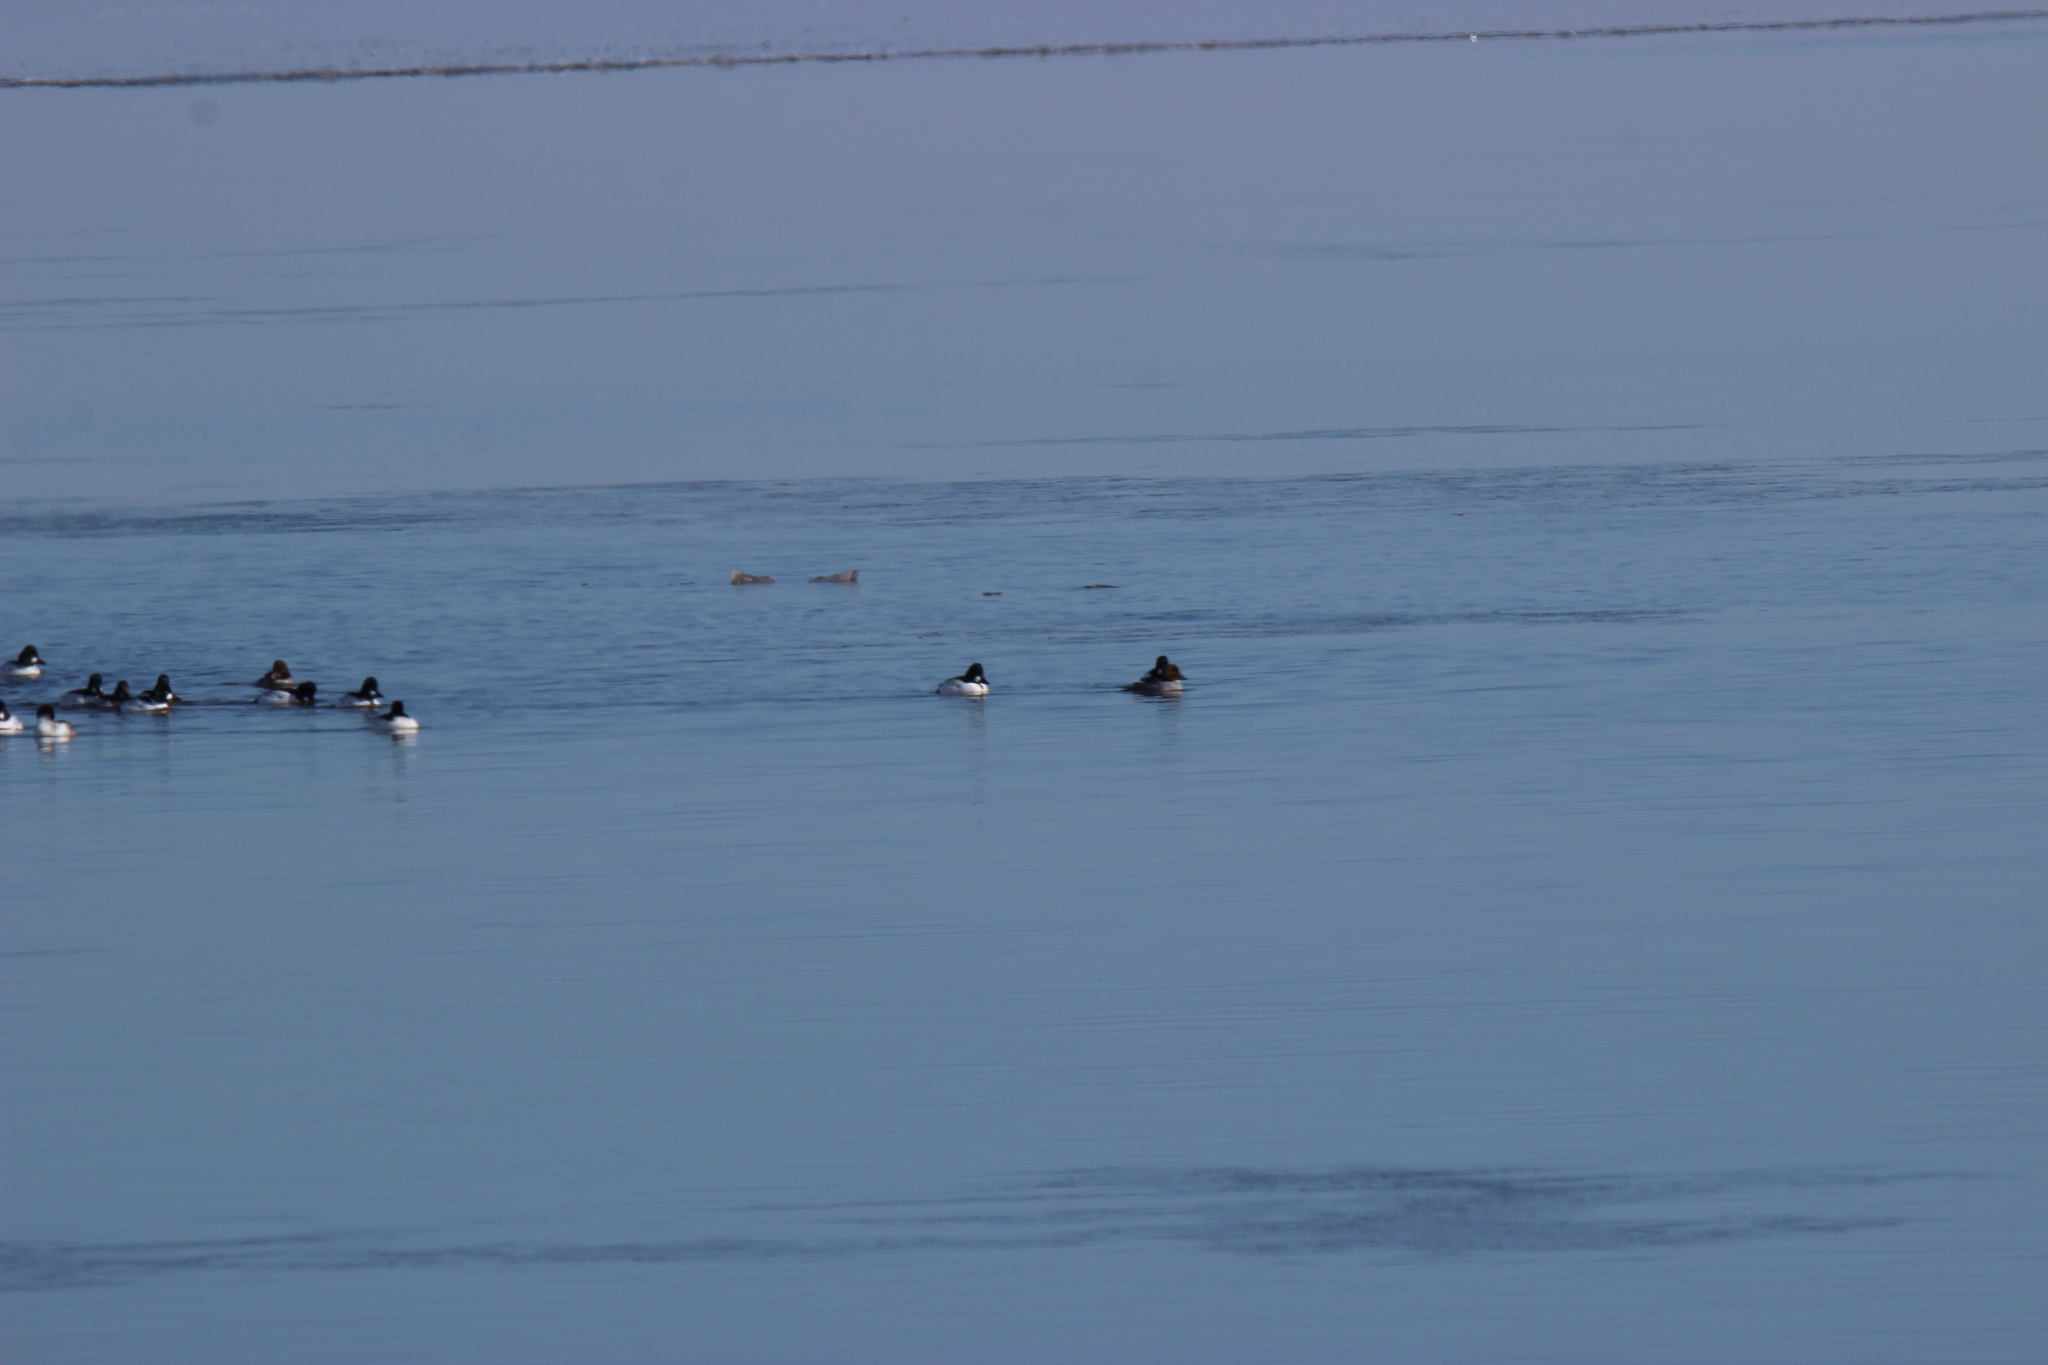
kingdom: Animalia
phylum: Chordata
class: Aves
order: Anseriformes
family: Anatidae
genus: Bucephala
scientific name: Bucephala clangula
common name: Common goldeneye
